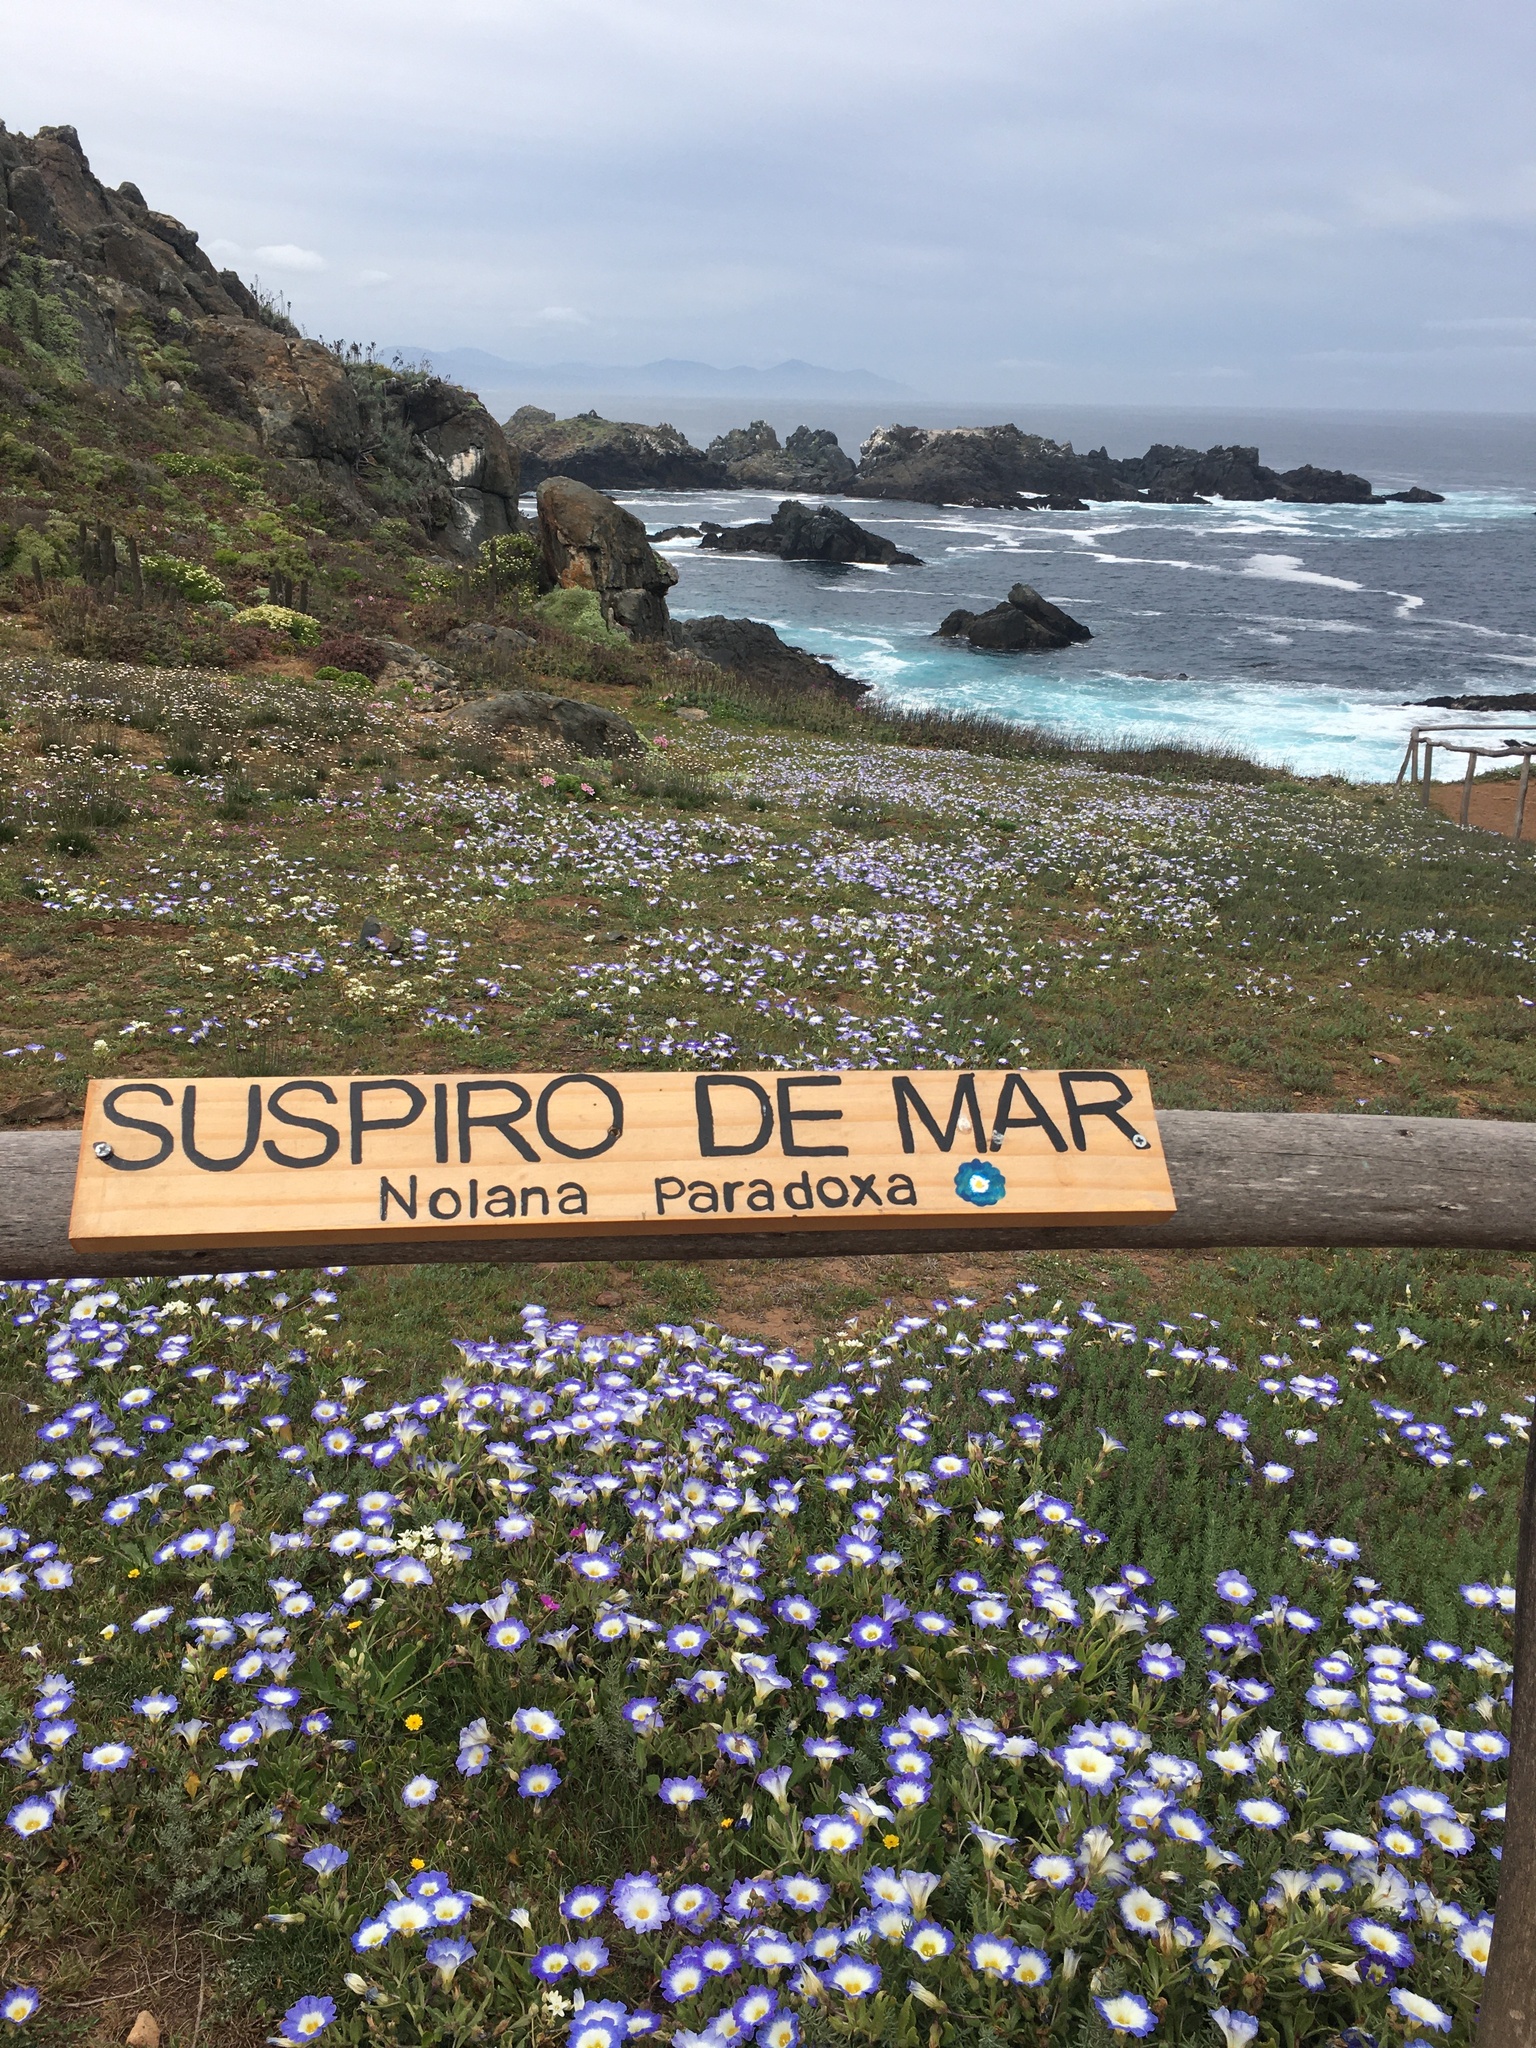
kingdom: Plantae
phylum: Tracheophyta
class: Magnoliopsida
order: Solanales
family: Solanaceae
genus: Nolana
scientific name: Nolana paradoxa
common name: Chilean-bellflower
